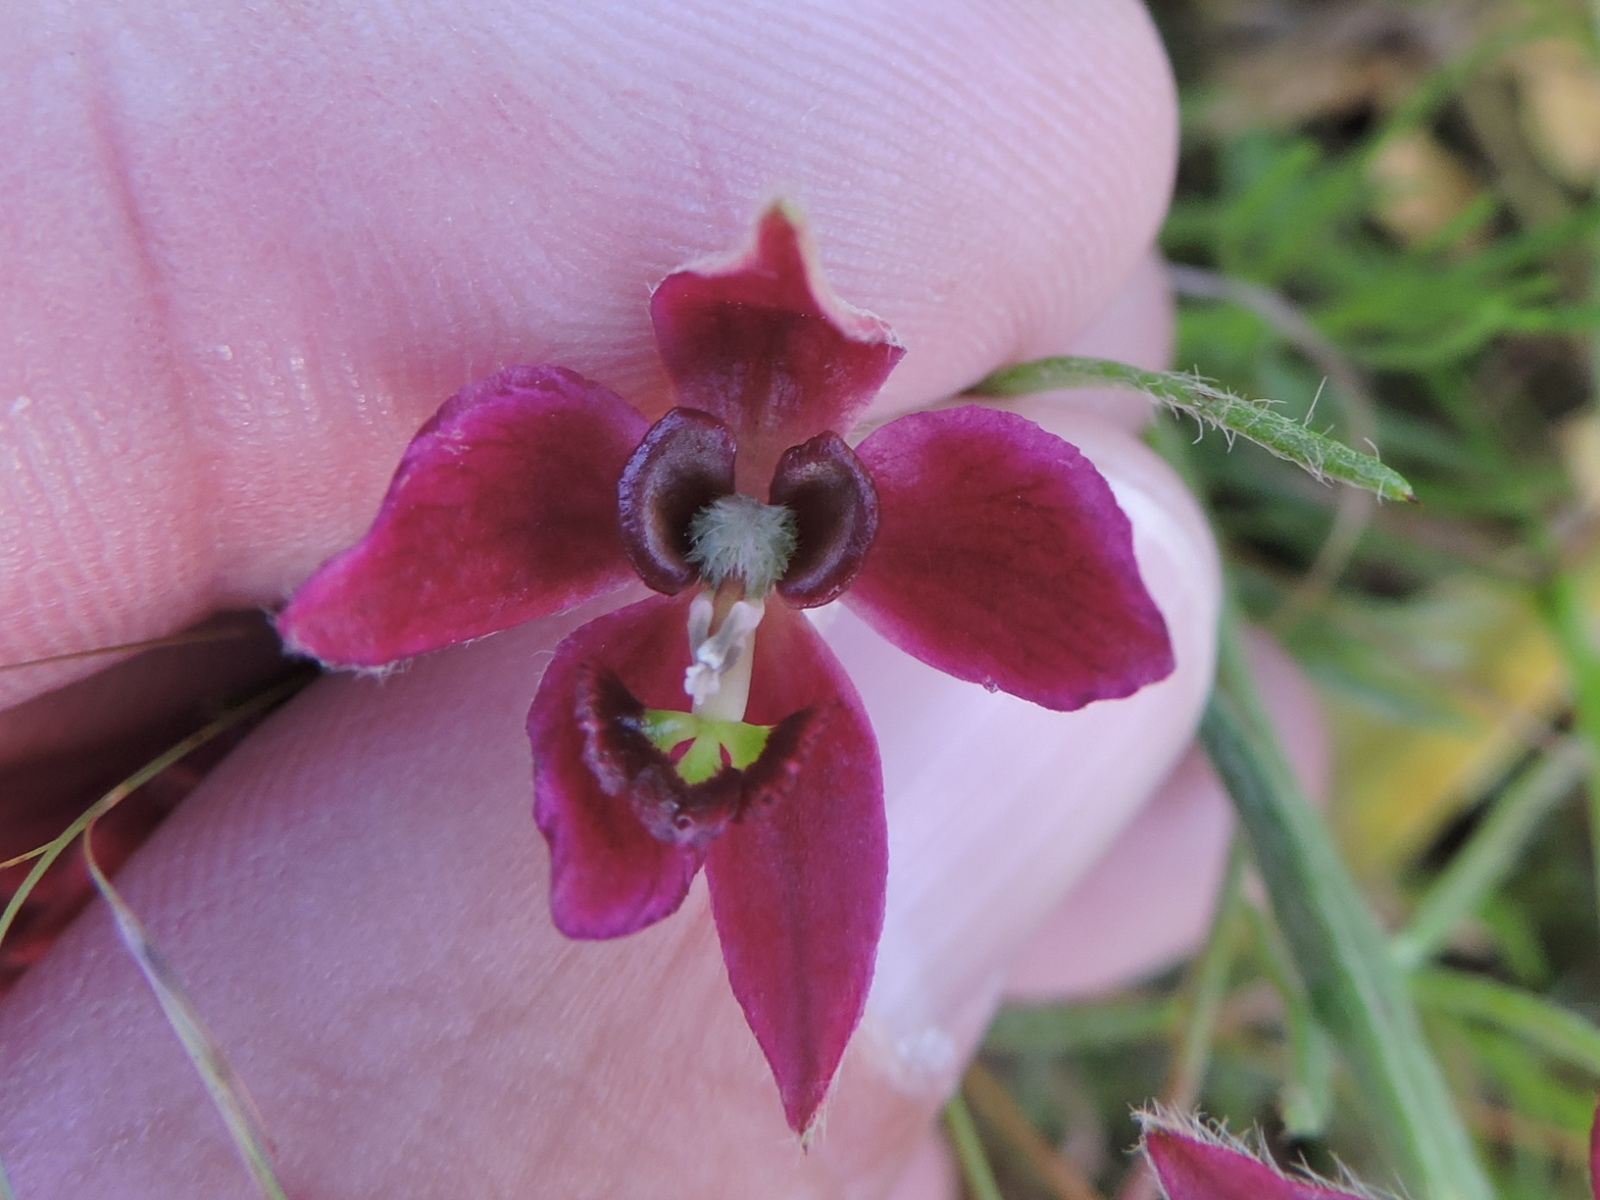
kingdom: Plantae
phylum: Tracheophyta
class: Magnoliopsida
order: Zygophyllales
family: Krameriaceae
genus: Krameria
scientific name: Krameria lanceolata
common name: Ratany
